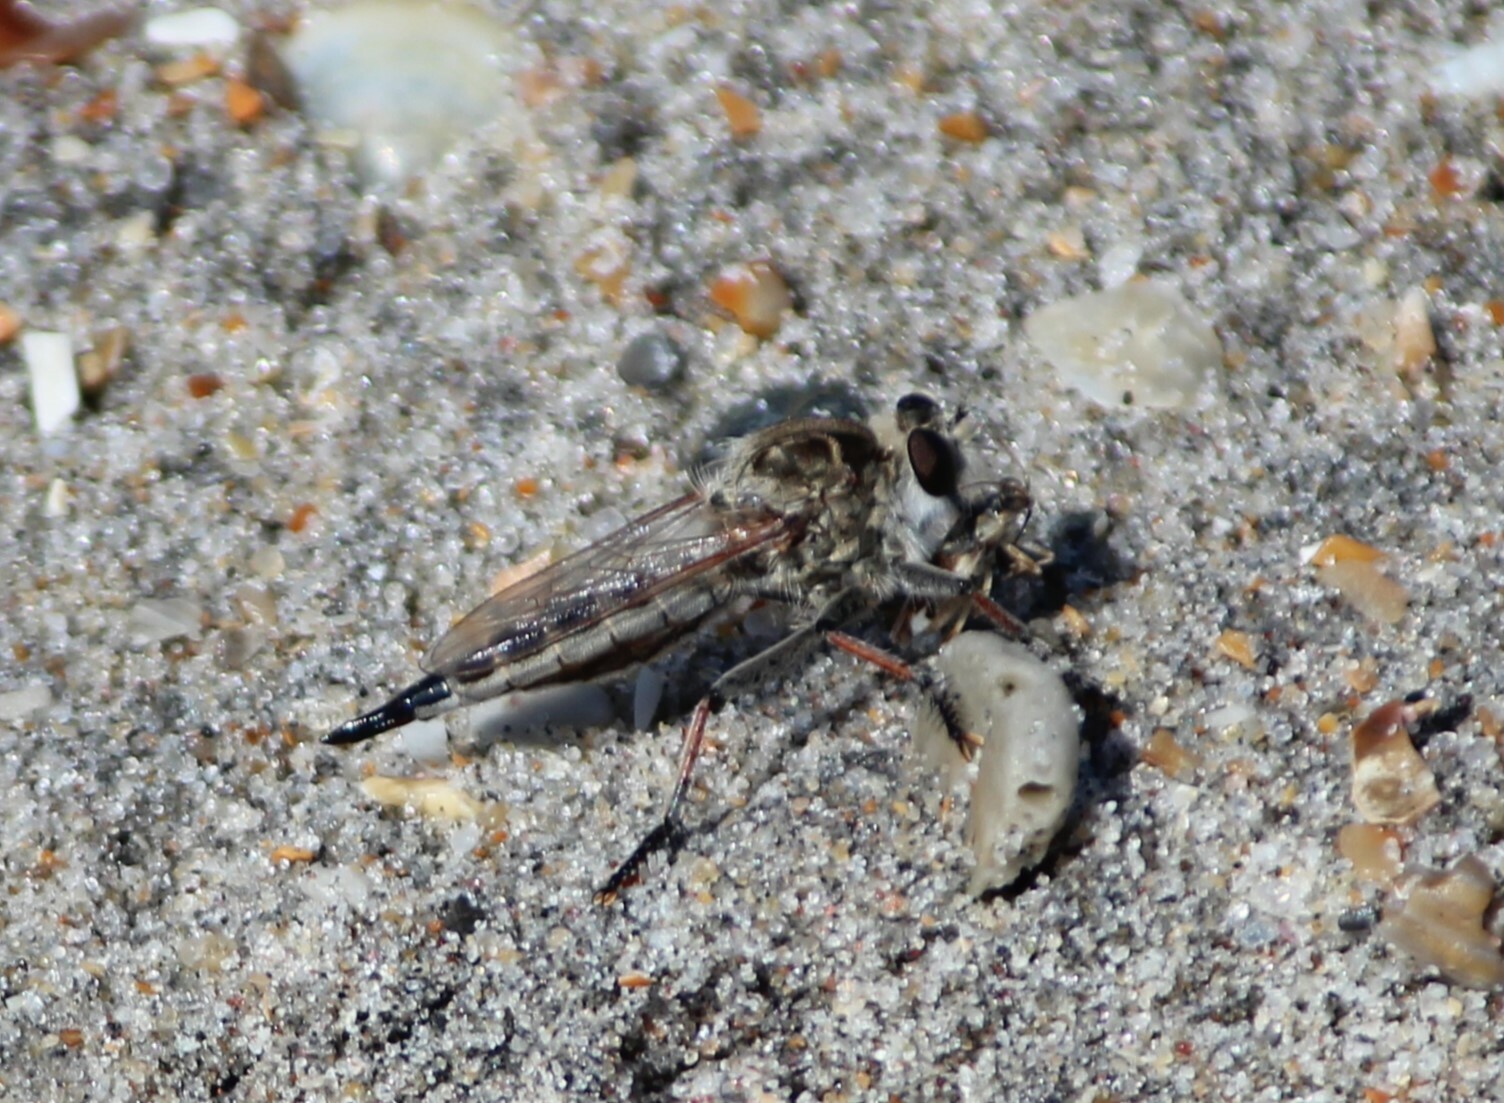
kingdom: Animalia
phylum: Arthropoda
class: Insecta
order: Diptera
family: Asilidae
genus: Efferia
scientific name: Efferia albibarbis
